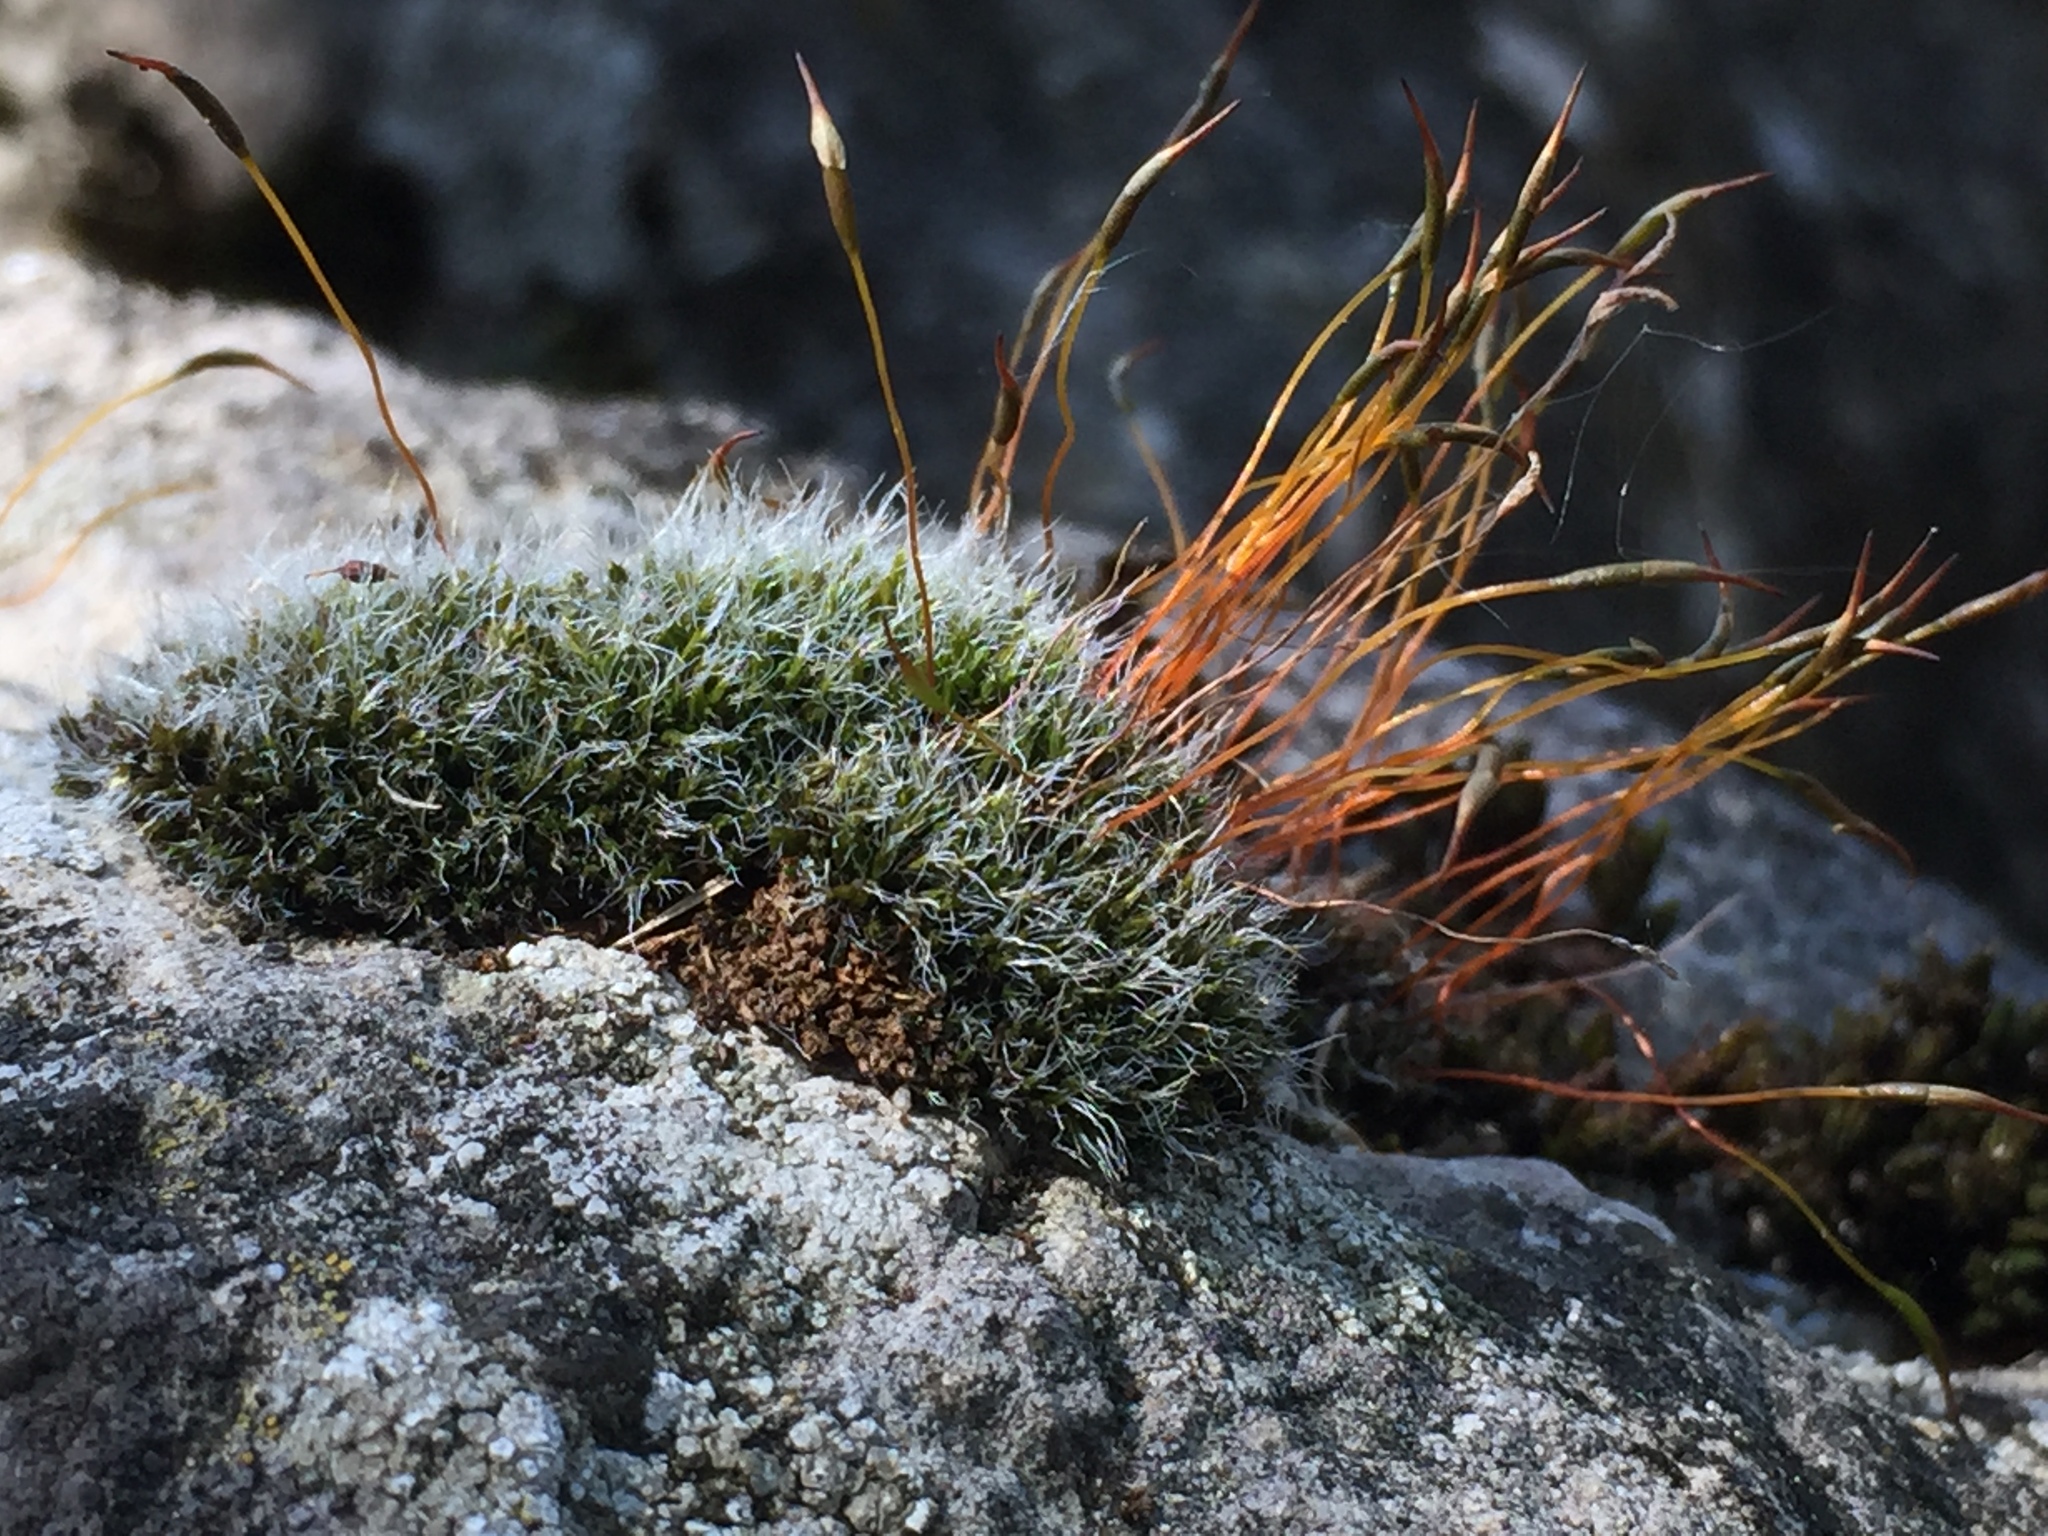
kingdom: Plantae
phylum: Bryophyta
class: Bryopsida
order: Pottiales
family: Pottiaceae
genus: Tortula
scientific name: Tortula muralis
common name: Wall screw-moss
